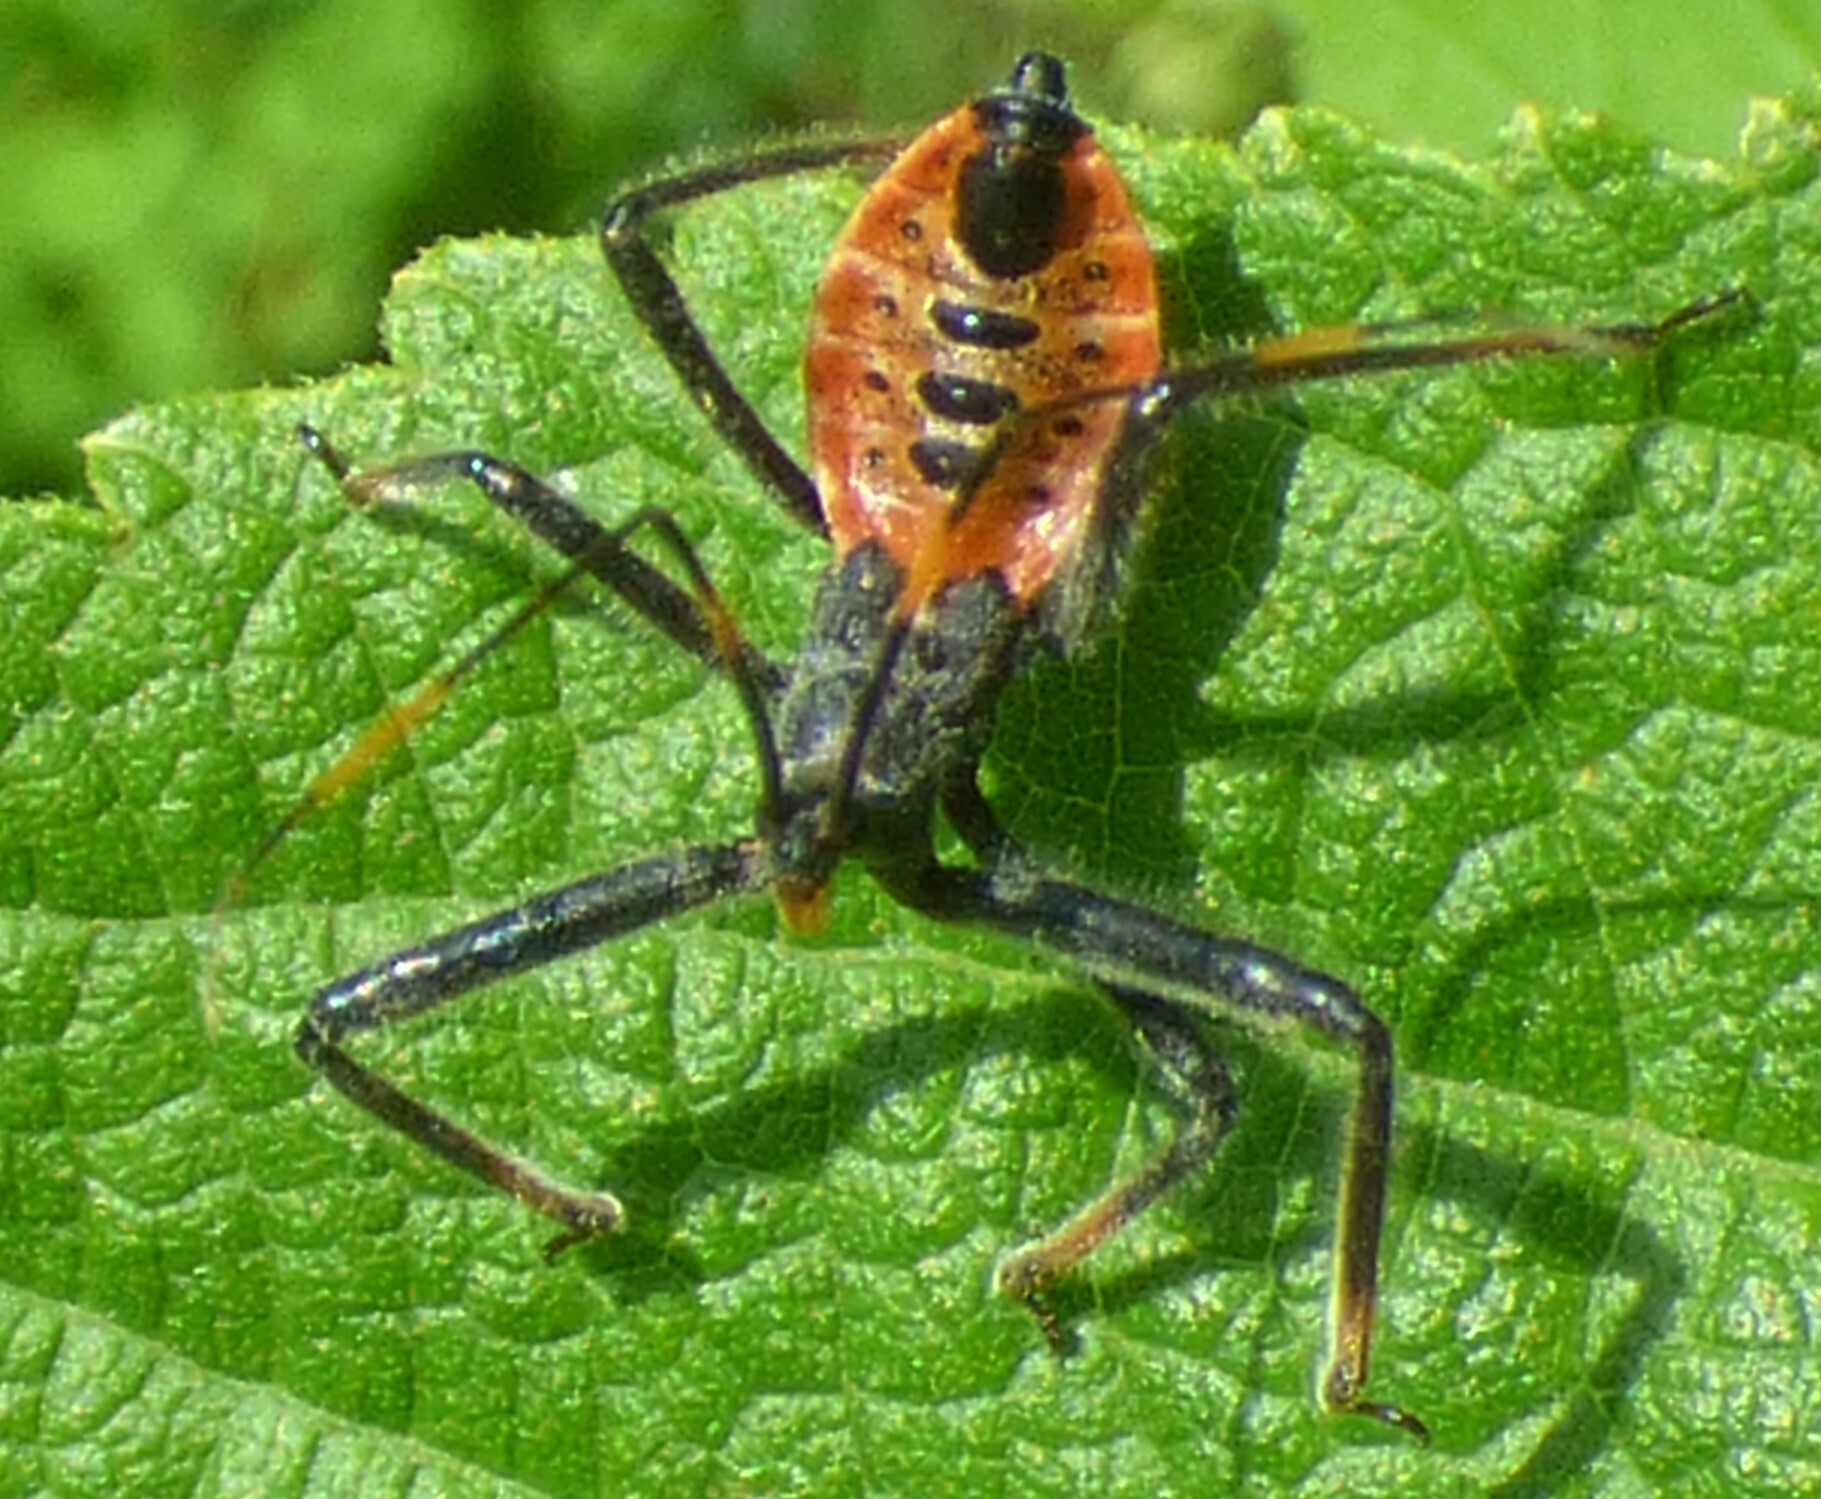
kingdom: Animalia
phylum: Arthropoda
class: Insecta
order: Hemiptera
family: Reduviidae
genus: Arilus
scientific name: Arilus cristatus
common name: North american wheel bug
